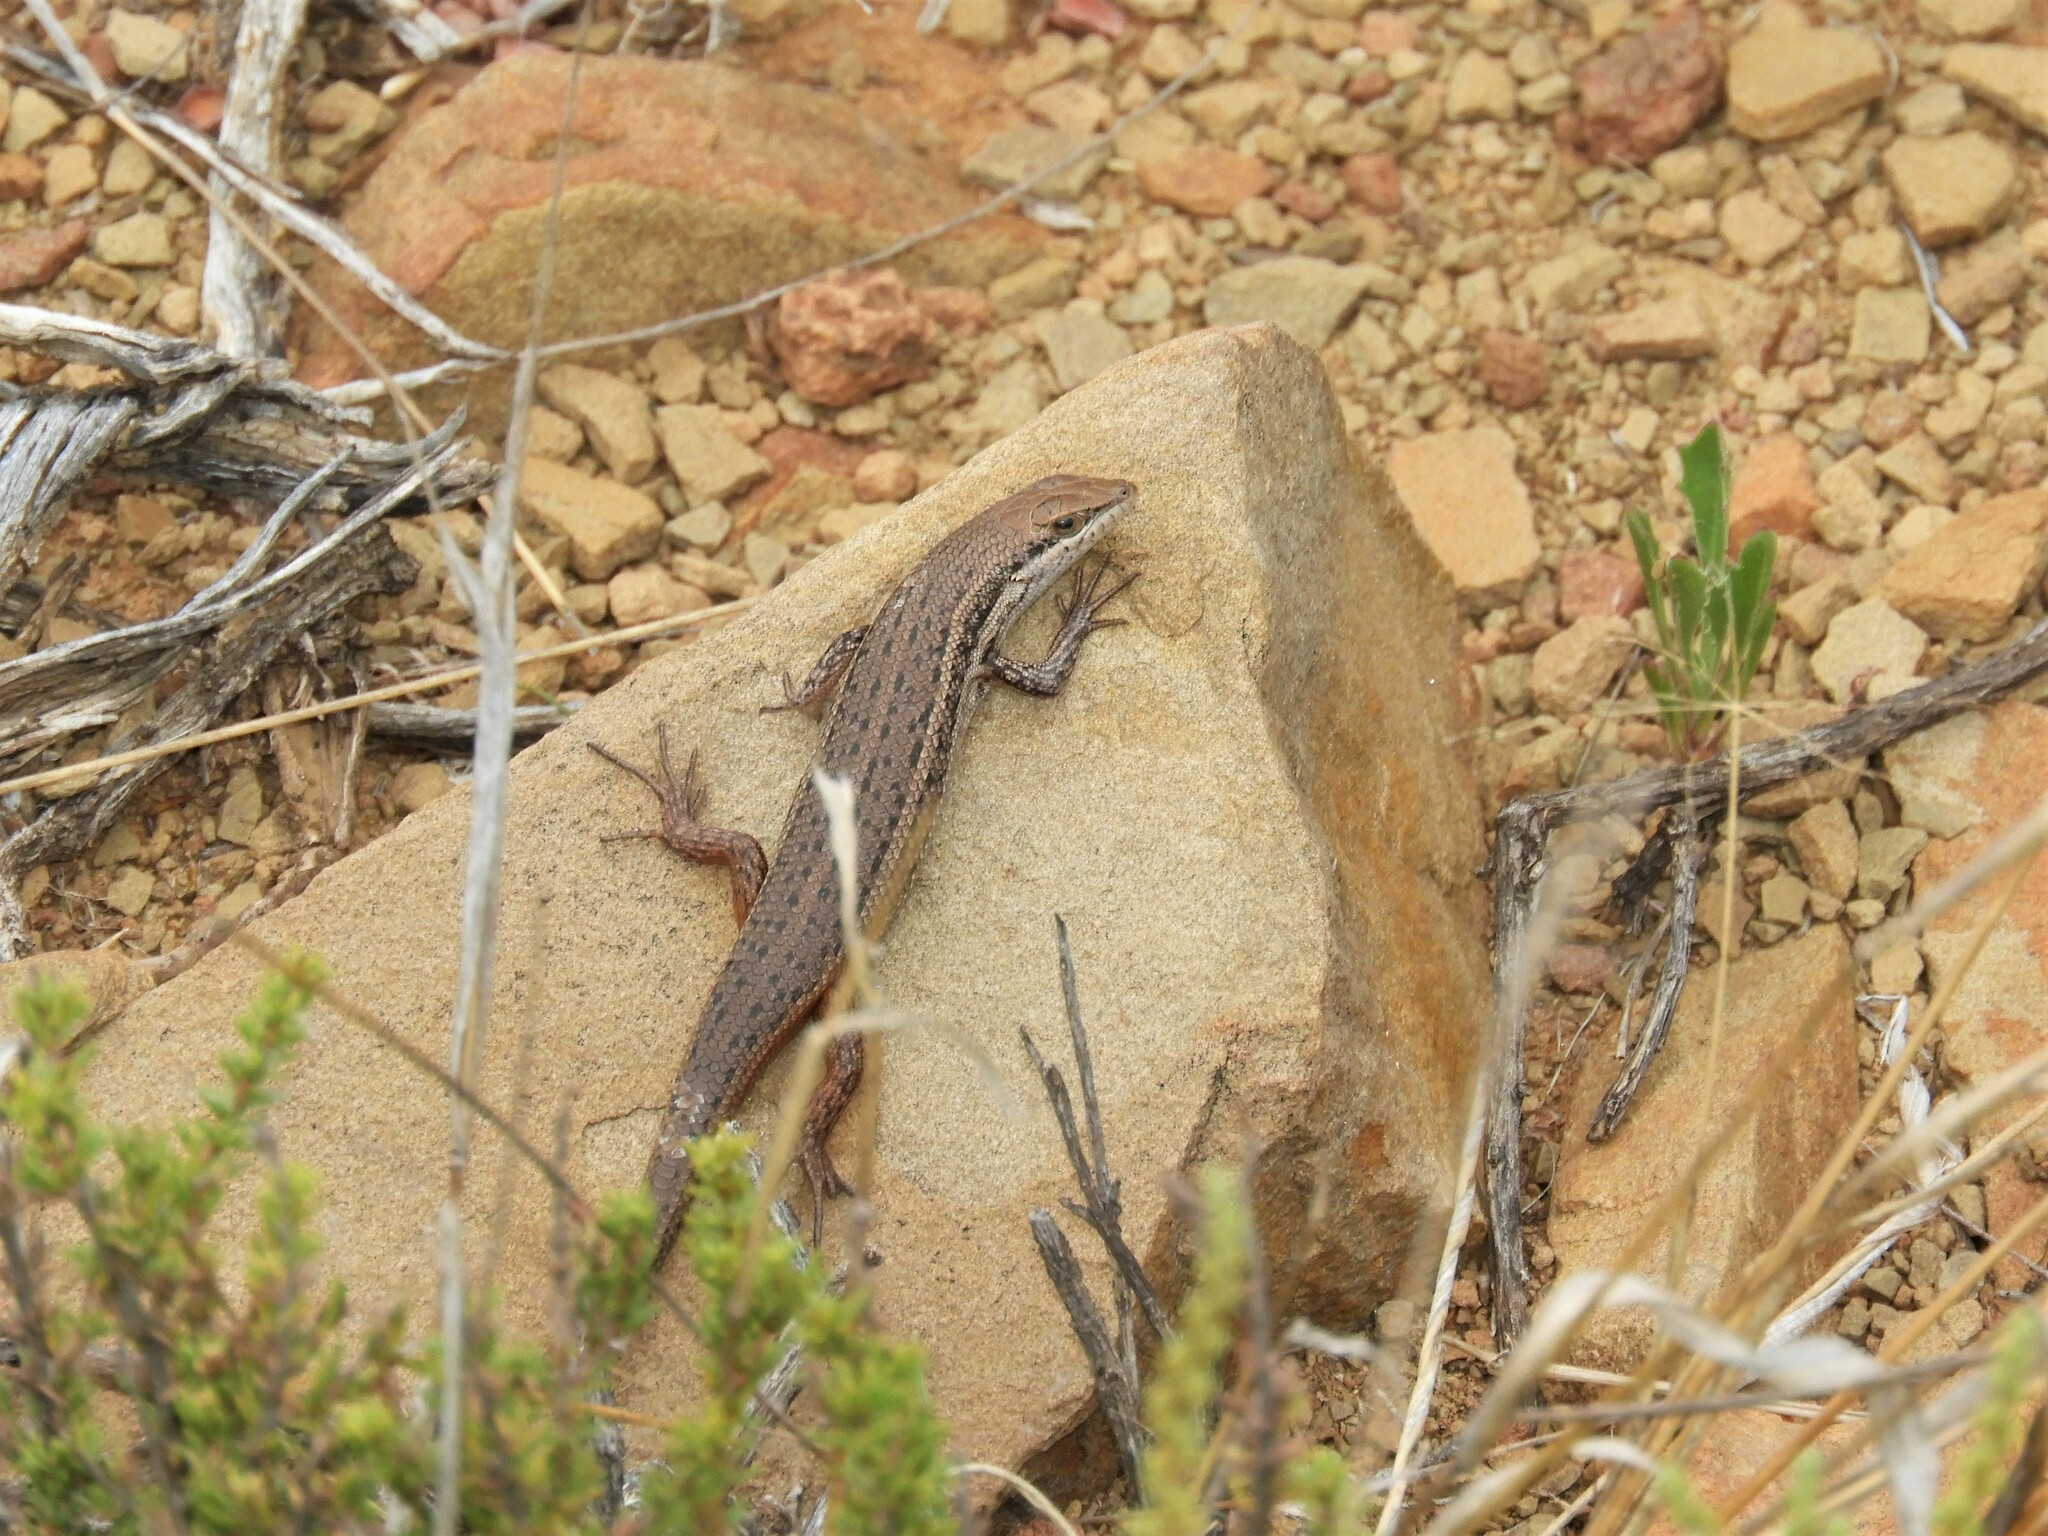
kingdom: Animalia
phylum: Chordata
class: Squamata
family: Scincidae
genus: Trachylepis
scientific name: Trachylepis variegata
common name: Variegated skink
